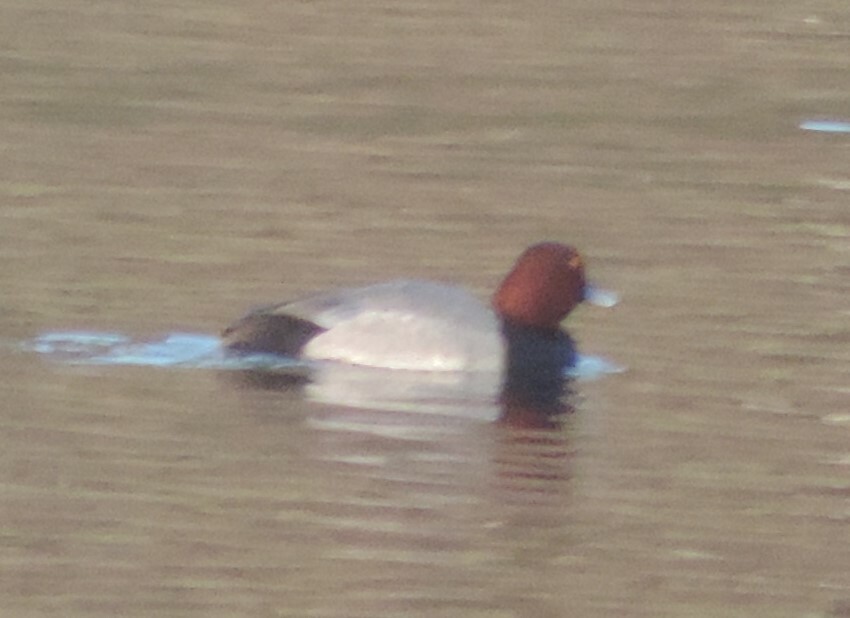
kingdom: Animalia
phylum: Chordata
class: Aves
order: Anseriformes
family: Anatidae
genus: Aythya
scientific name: Aythya americana
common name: Redhead
